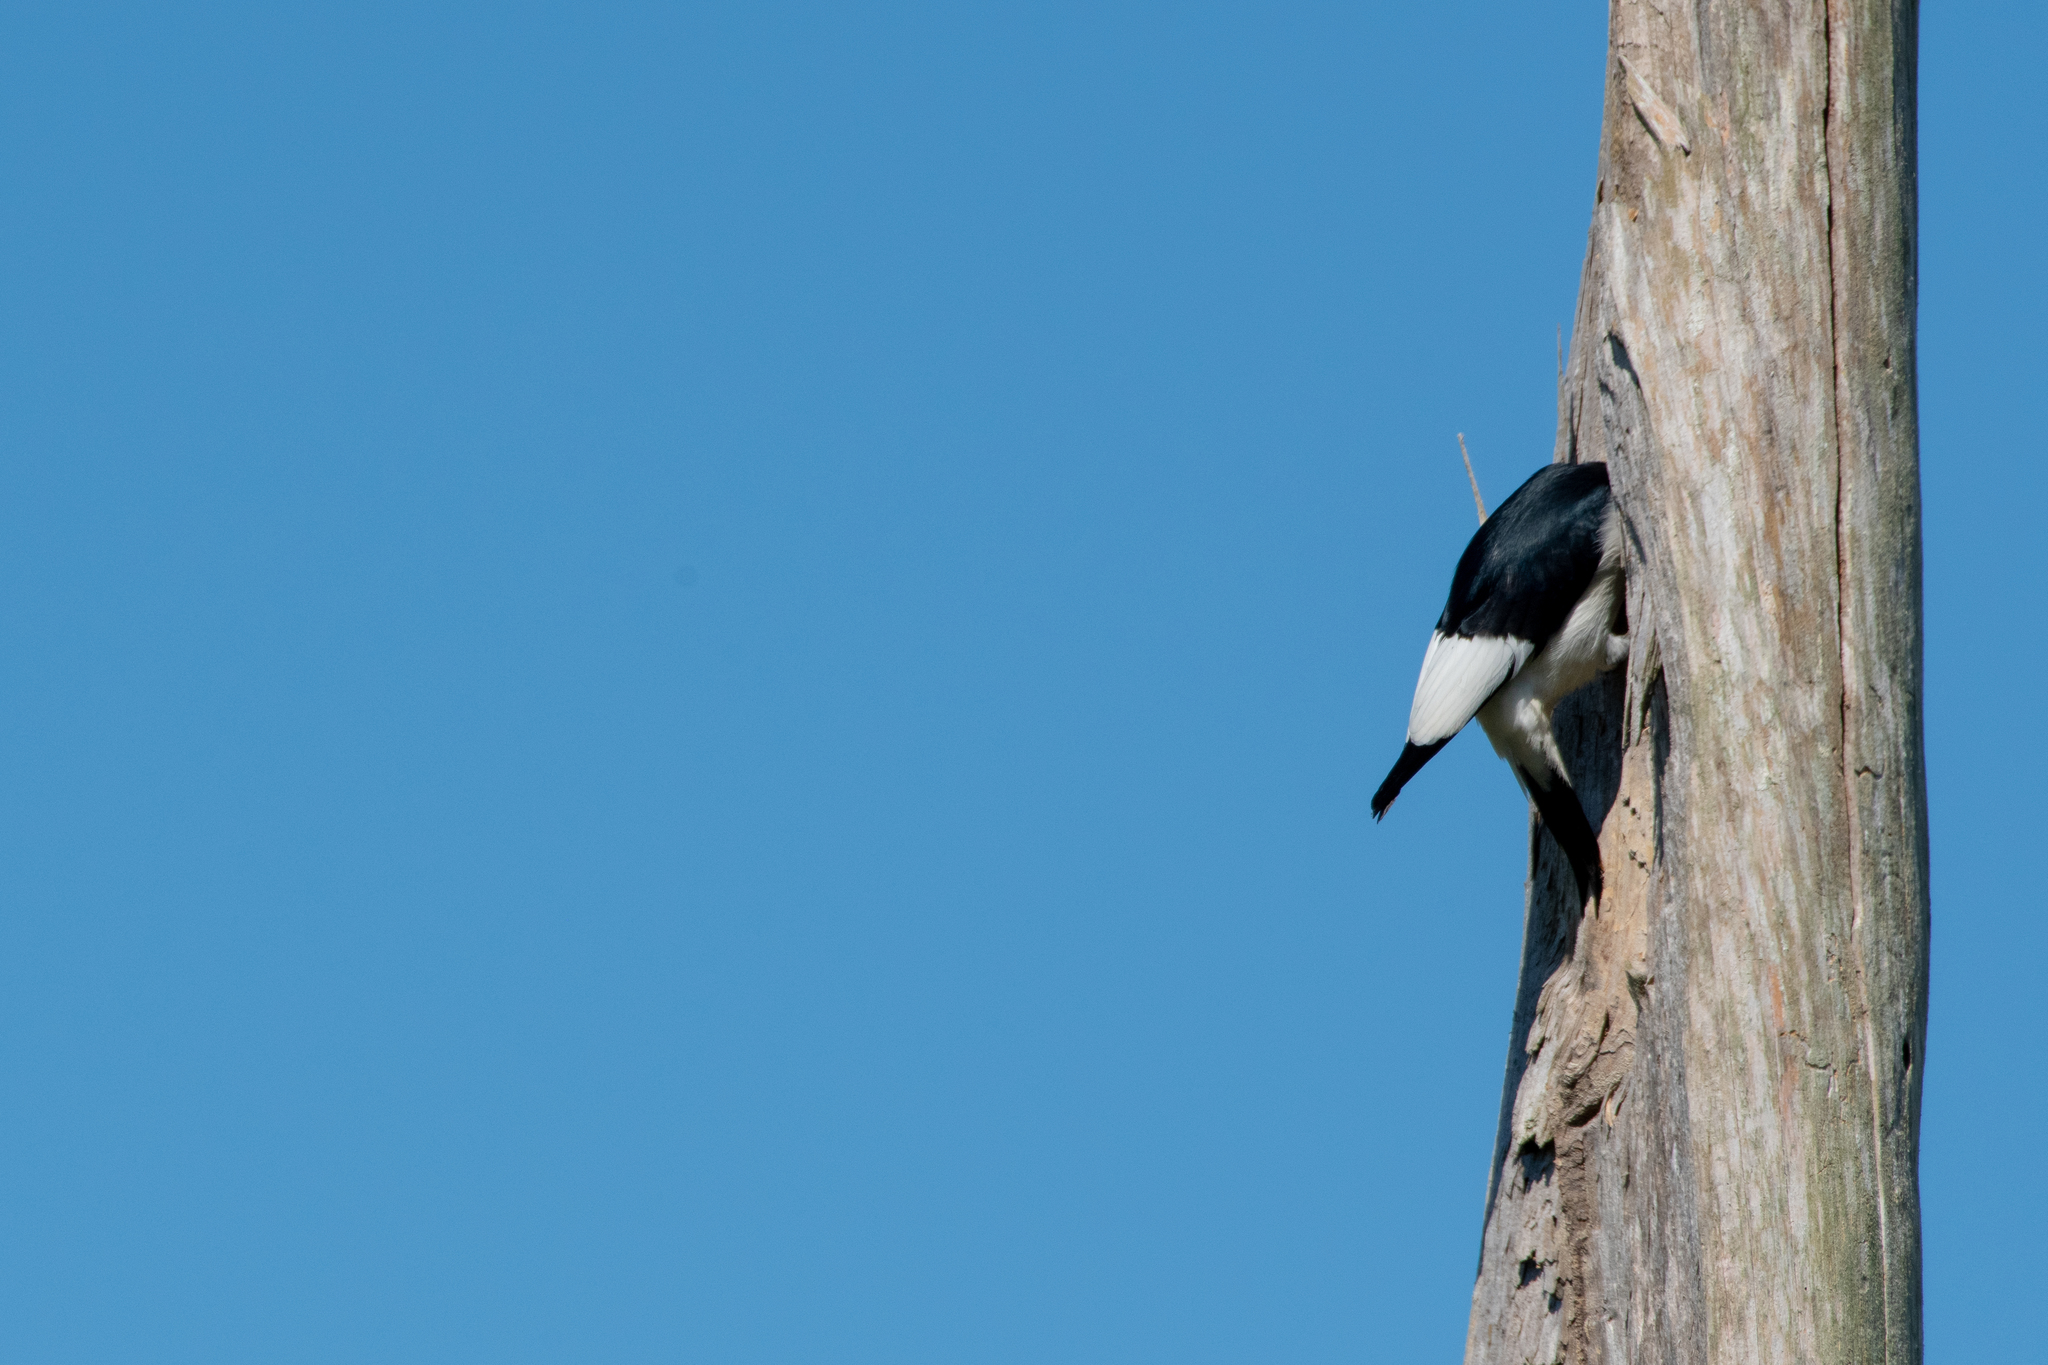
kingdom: Animalia
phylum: Chordata
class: Aves
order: Piciformes
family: Picidae
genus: Melanerpes
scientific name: Melanerpes erythrocephalus
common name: Red-headed woodpecker
